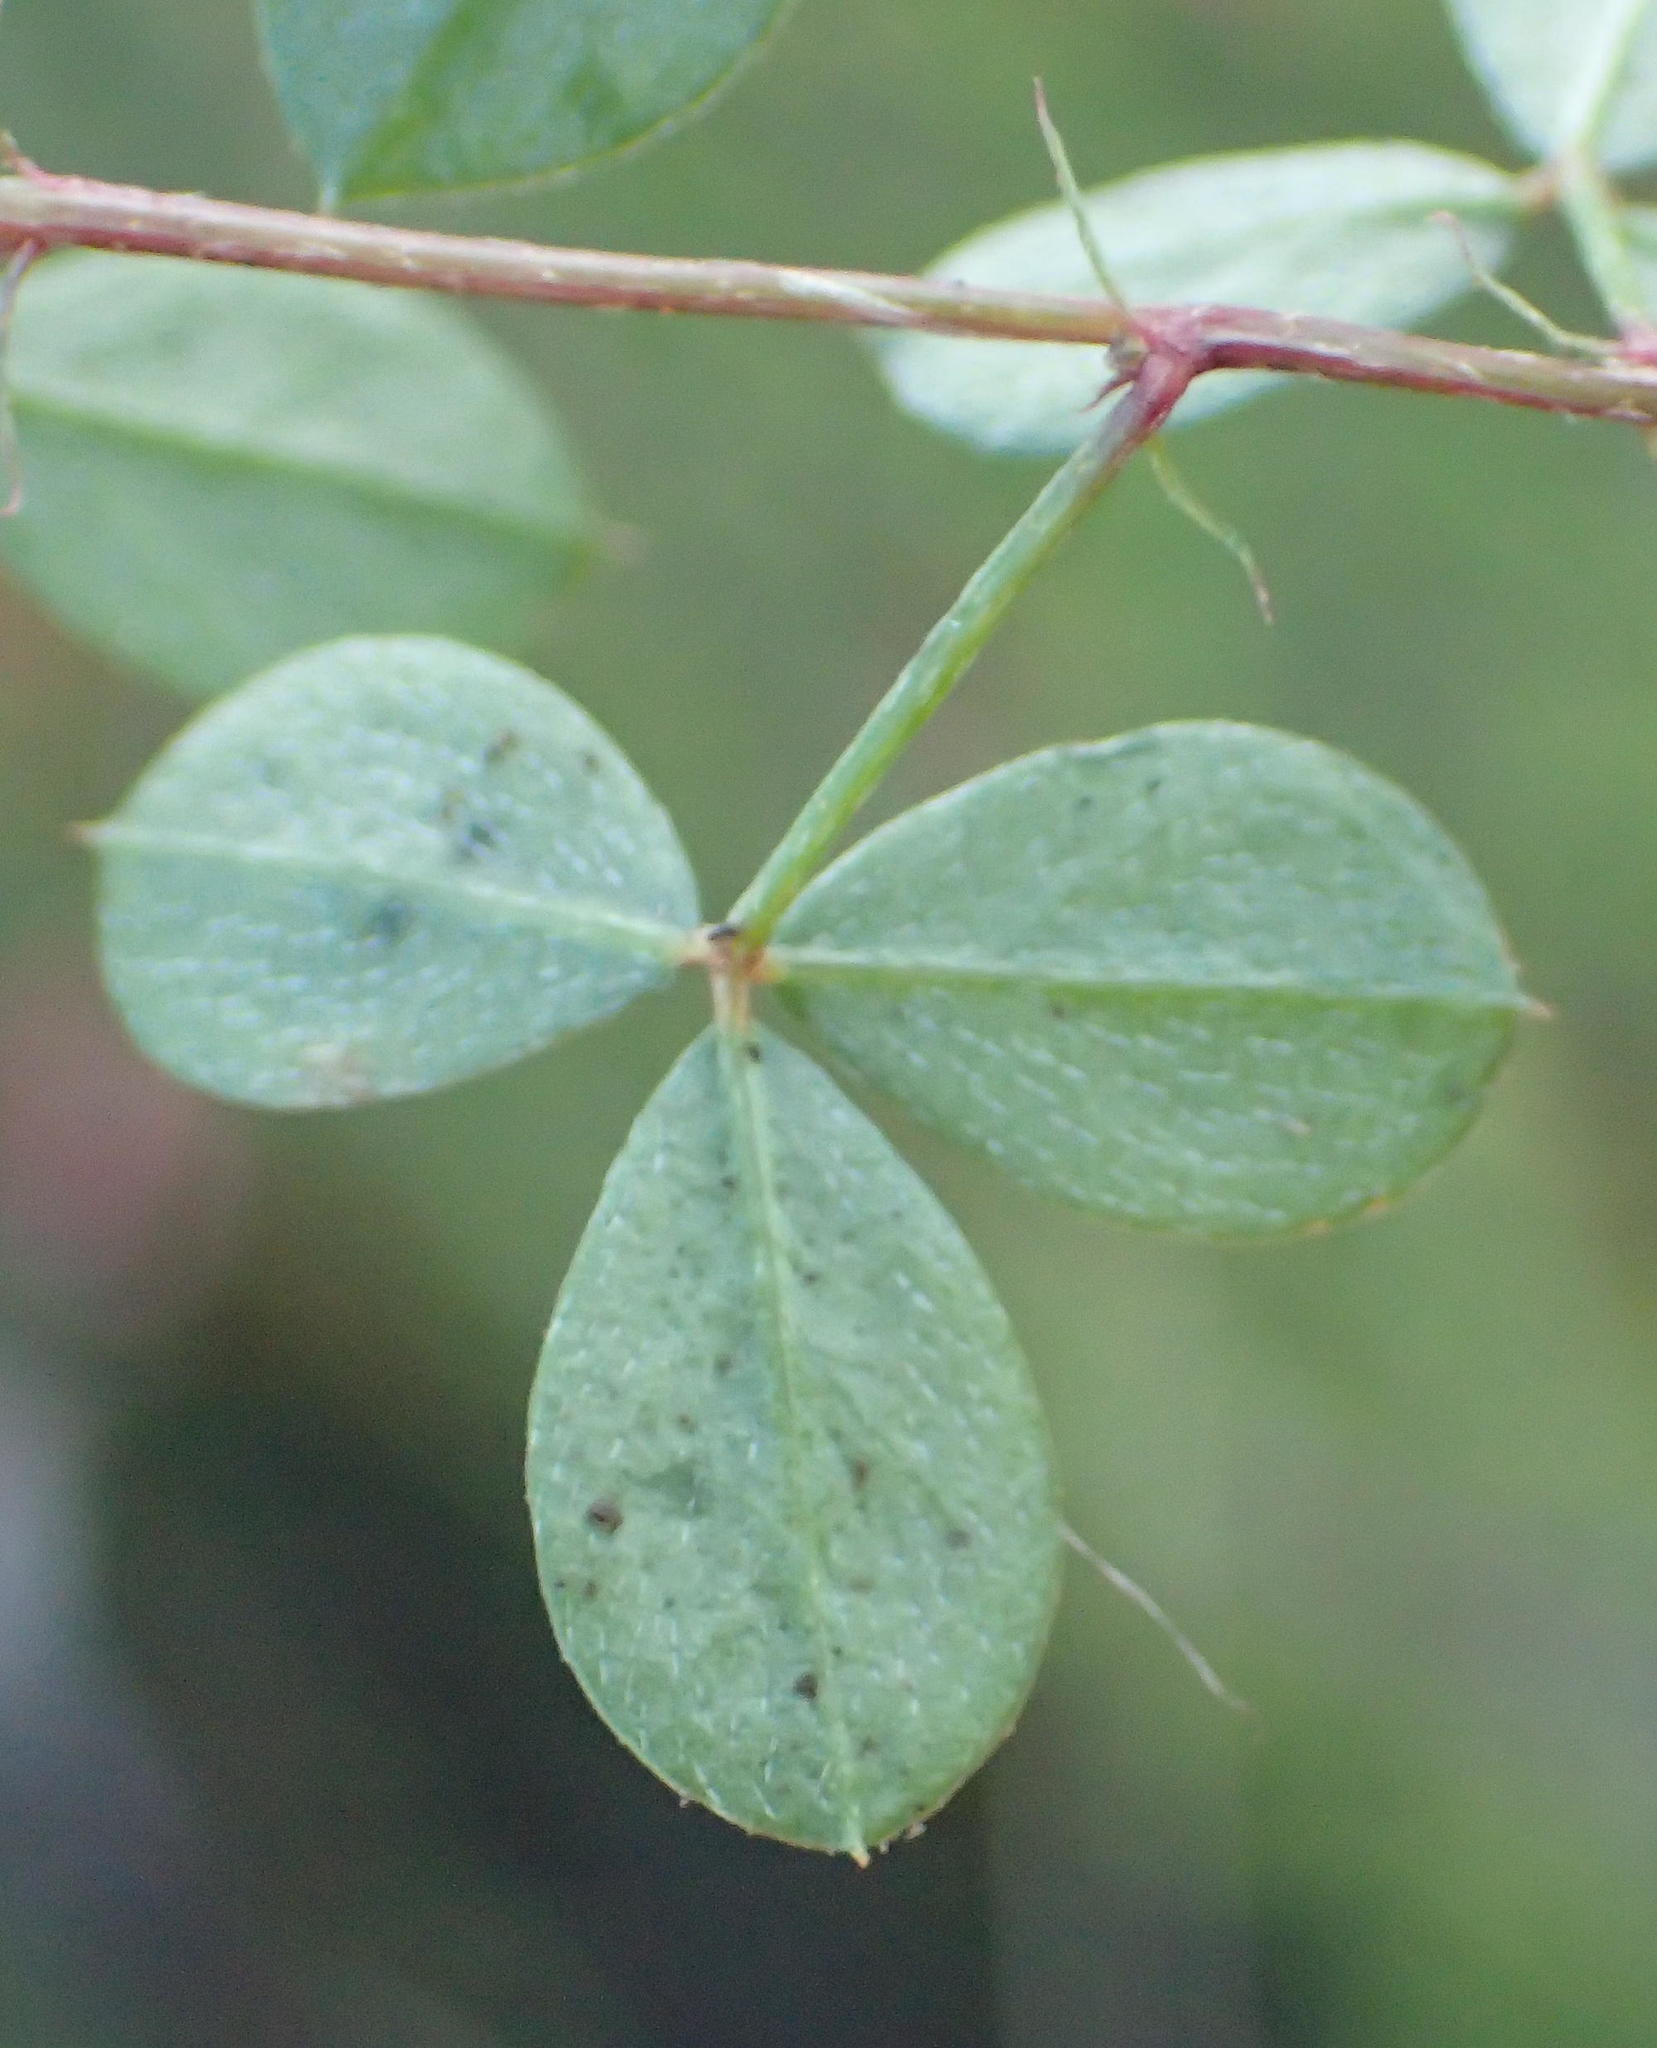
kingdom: Plantae
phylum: Tracheophyta
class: Magnoliopsida
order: Fabales
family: Fabaceae
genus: Indigofera
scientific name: Indigofera erecta
